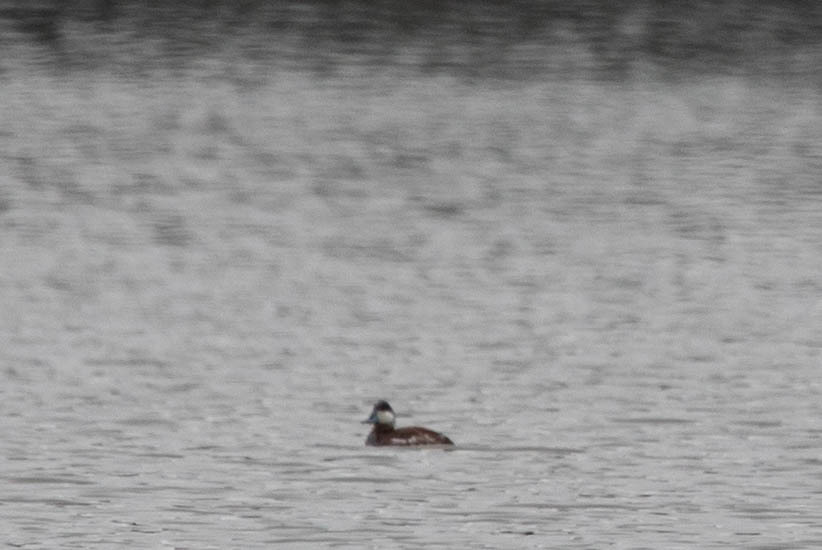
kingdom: Animalia
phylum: Chordata
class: Aves
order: Anseriformes
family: Anatidae
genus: Oxyura
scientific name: Oxyura jamaicensis
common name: Ruddy duck
